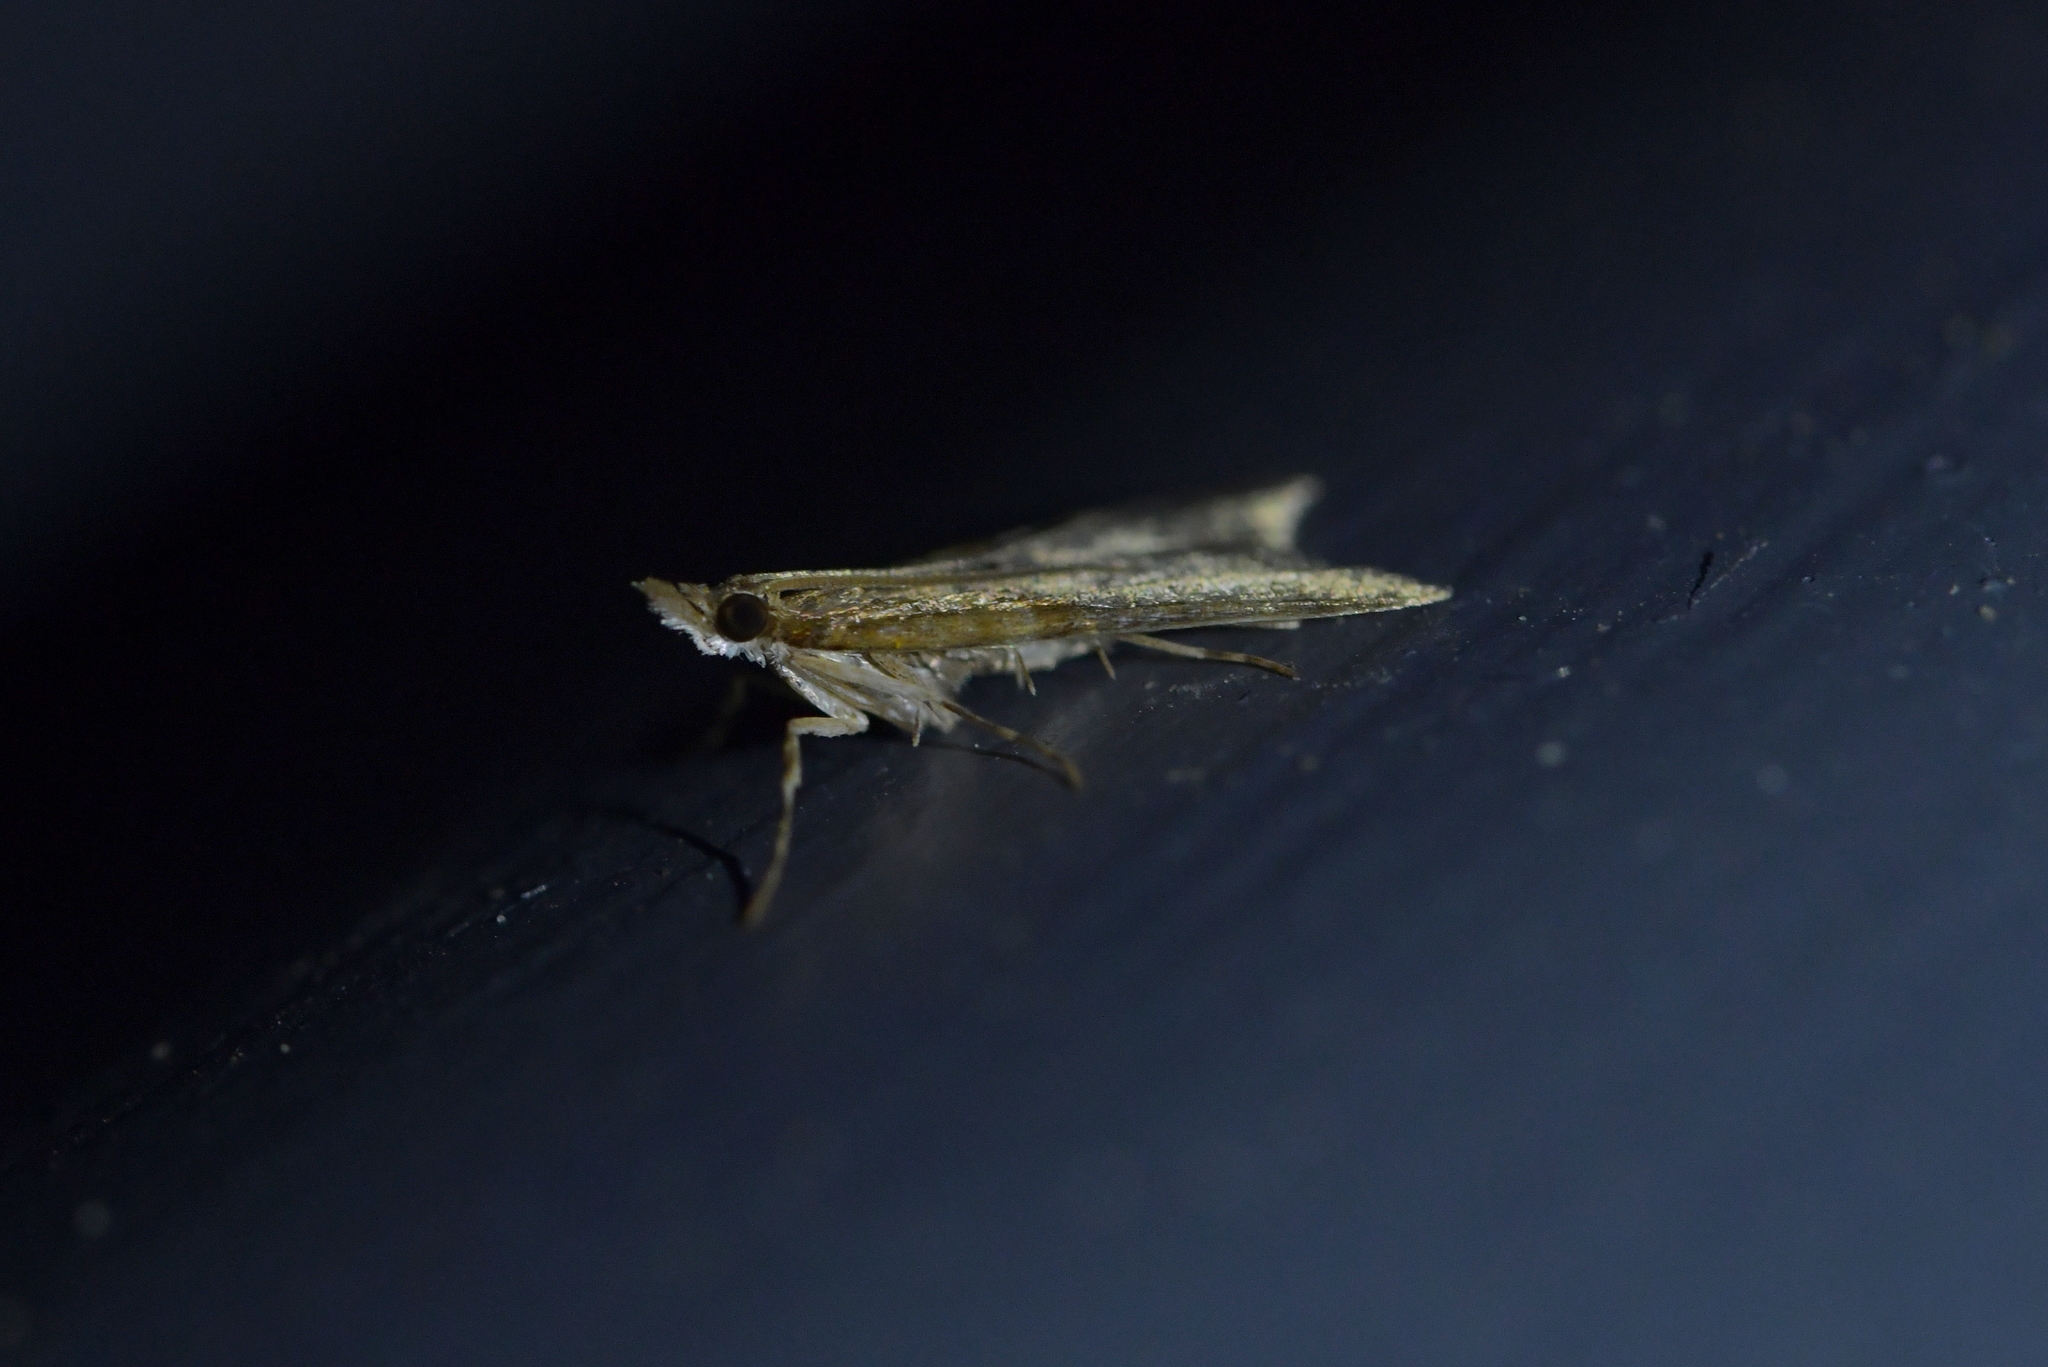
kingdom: Animalia
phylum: Arthropoda
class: Insecta
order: Lepidoptera
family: Crambidae
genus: Antiscopa
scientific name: Antiscopa epicomia
